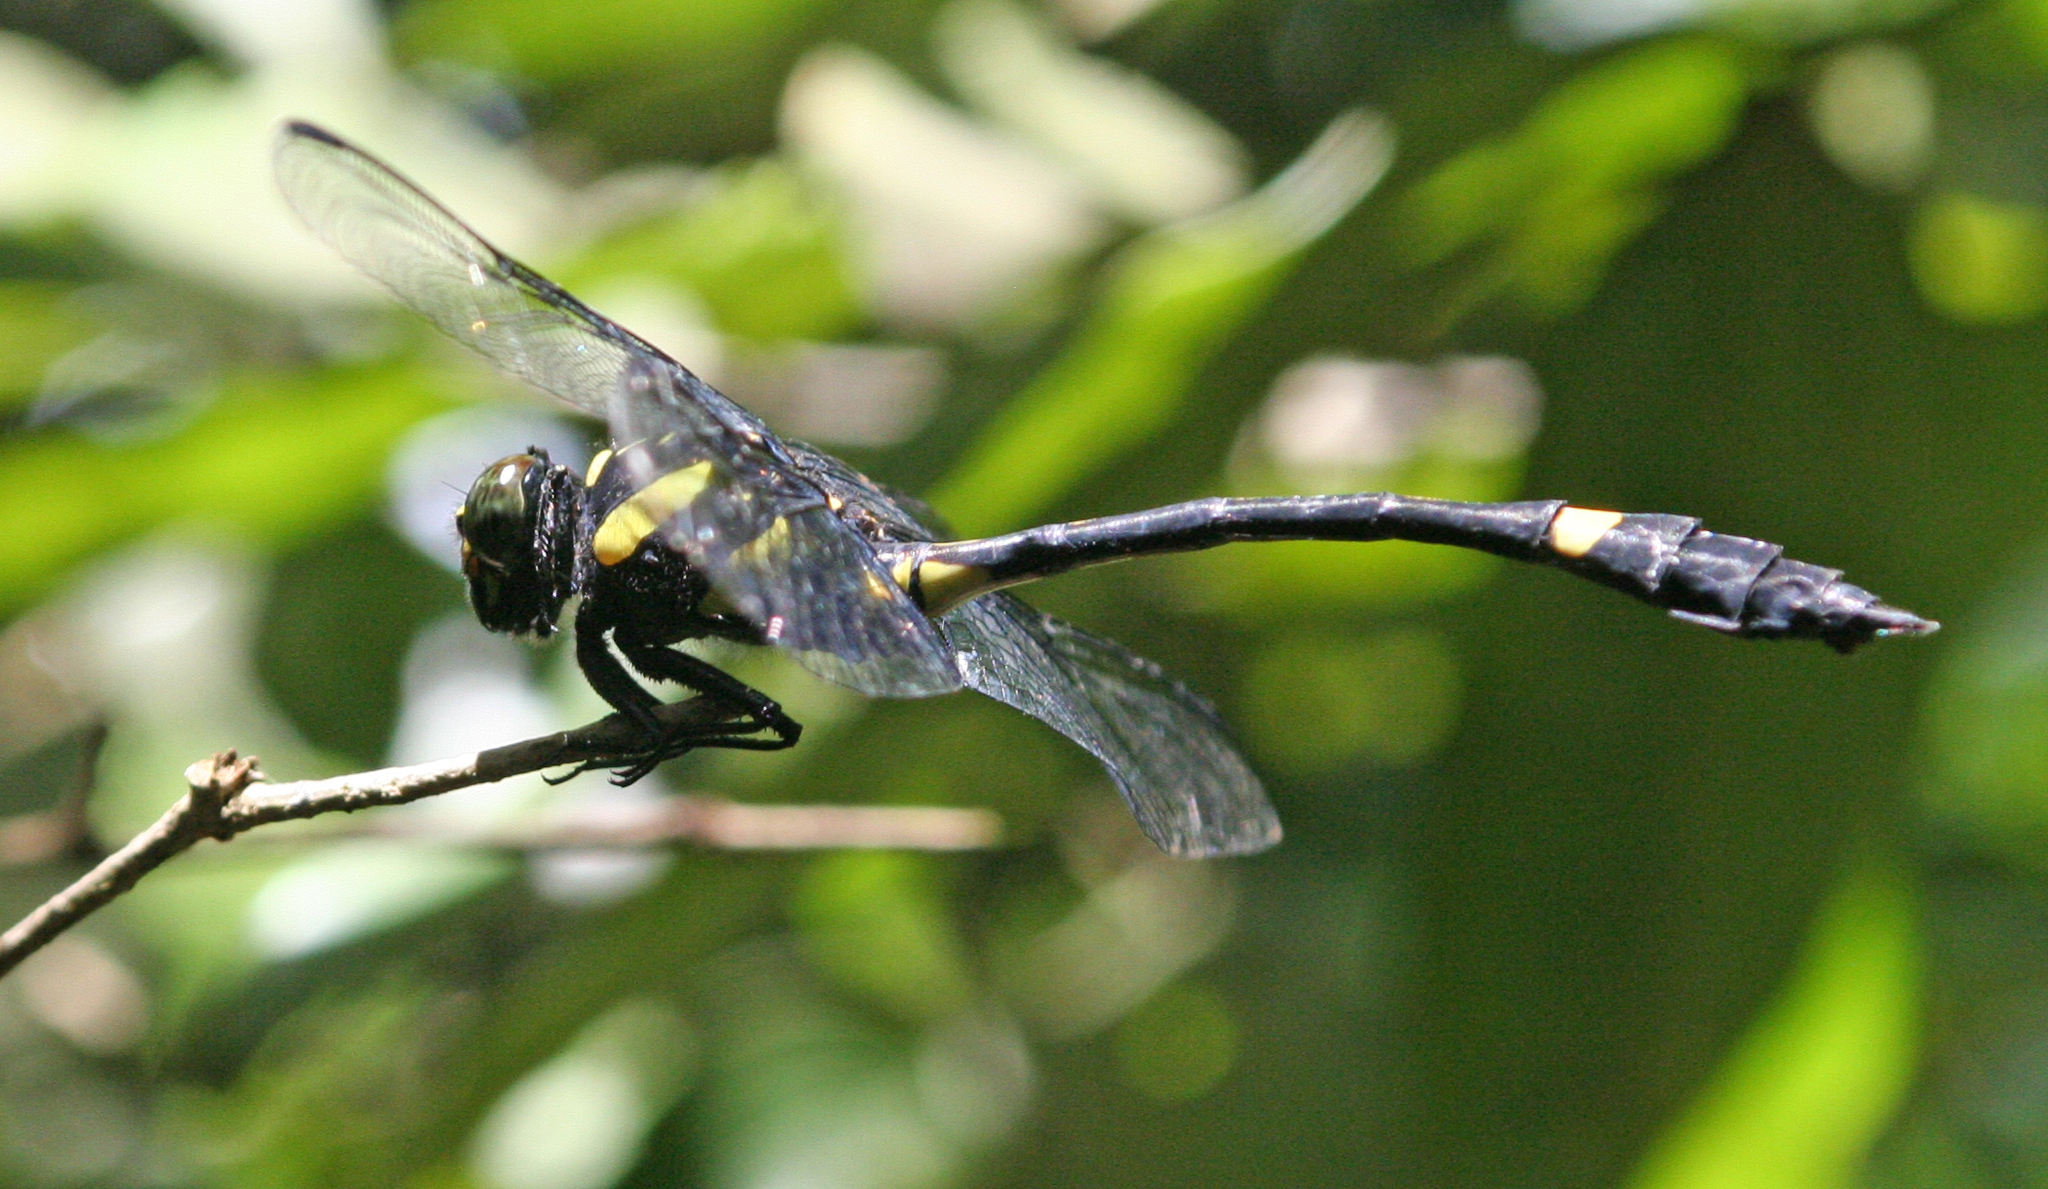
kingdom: Animalia
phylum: Arthropoda
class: Insecta
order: Odonata
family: Gomphidae
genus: Gomphidictinus
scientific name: Gomphidictinus perakensis
